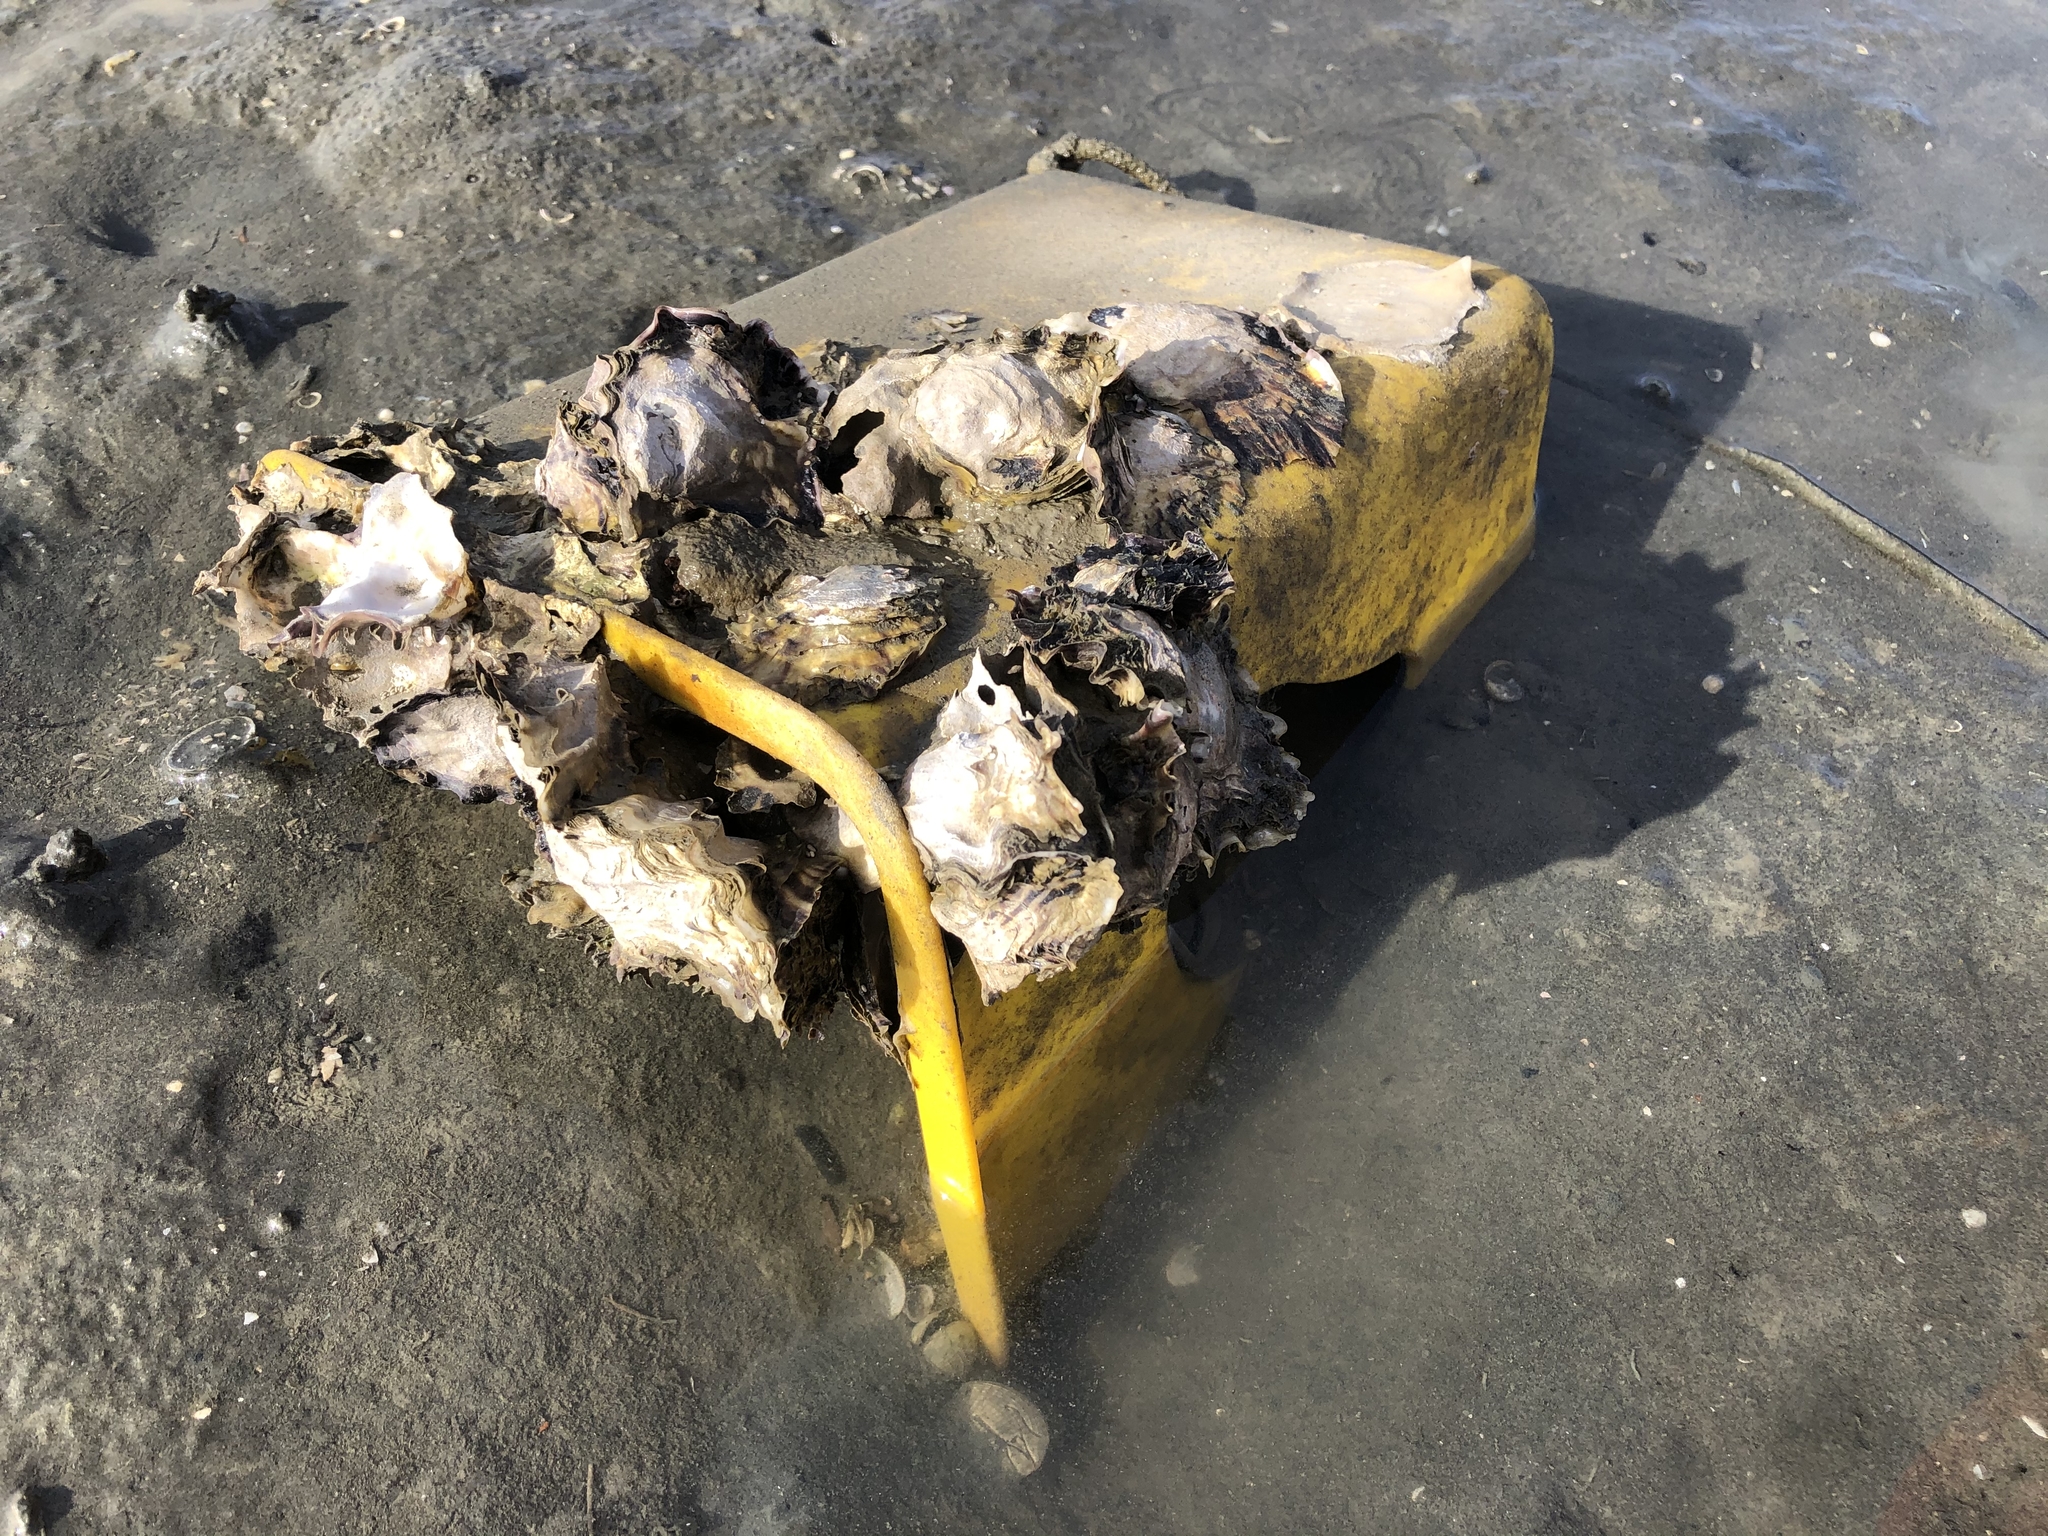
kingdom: Animalia
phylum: Mollusca
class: Bivalvia
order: Ostreida
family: Ostreidae
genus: Magallana
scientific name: Magallana gigas
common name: Pacific oyster
